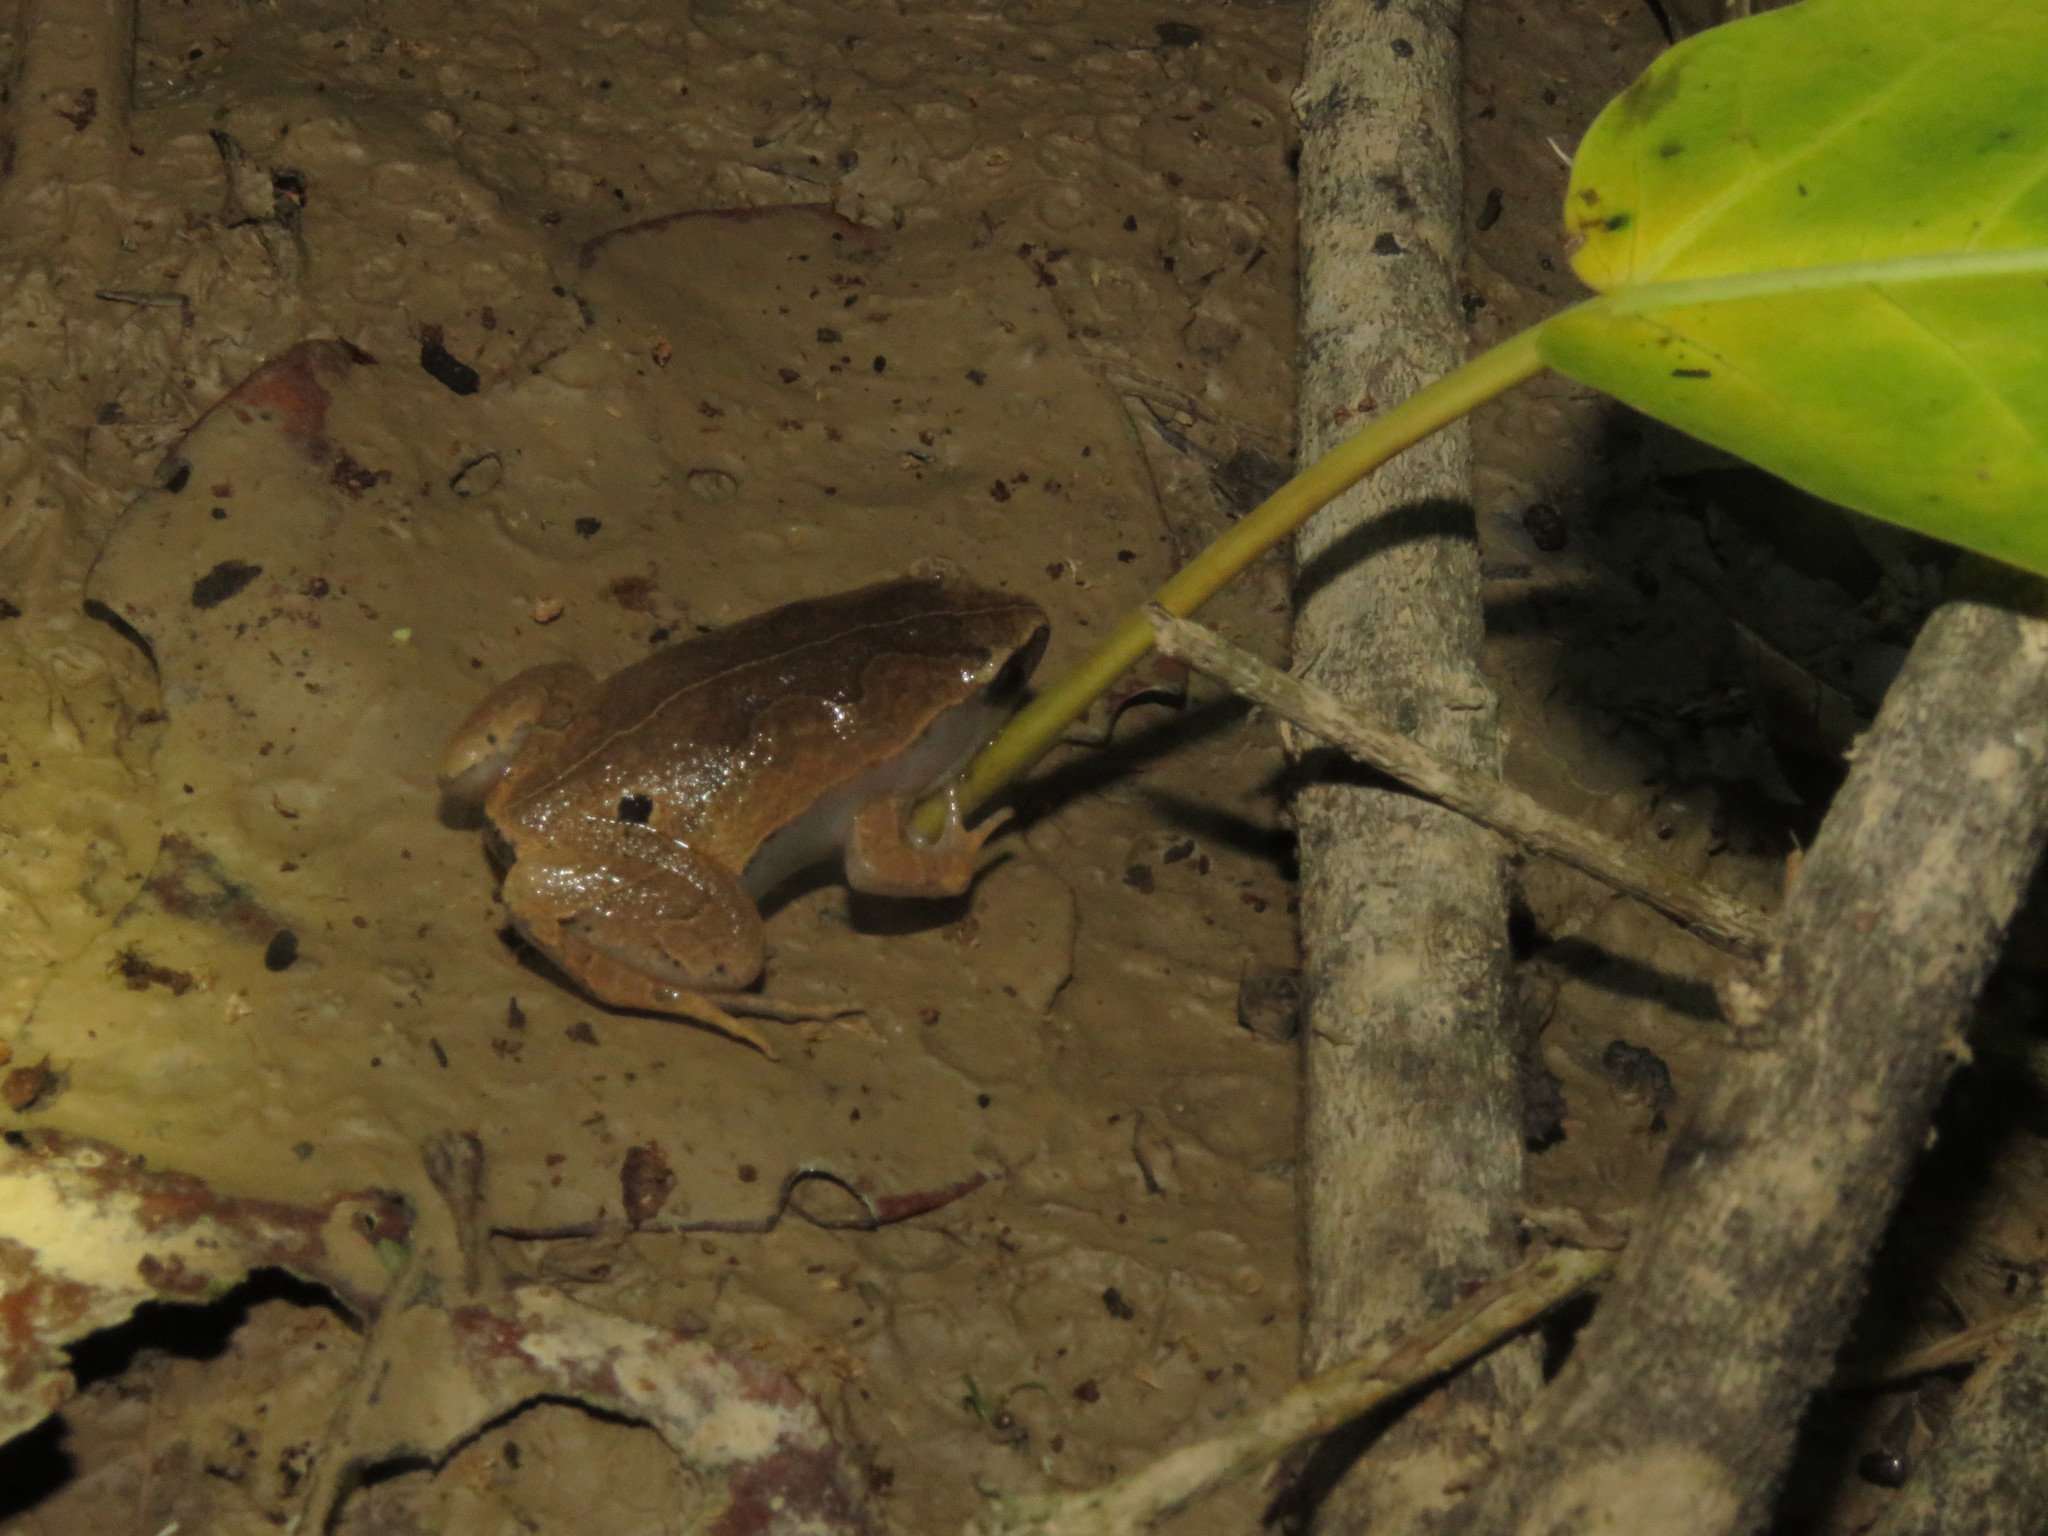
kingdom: Animalia
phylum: Chordata
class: Amphibia
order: Anura
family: Microhylidae
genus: Hamptophryne
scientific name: Hamptophryne boliviana
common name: Bolivian bleating frog
